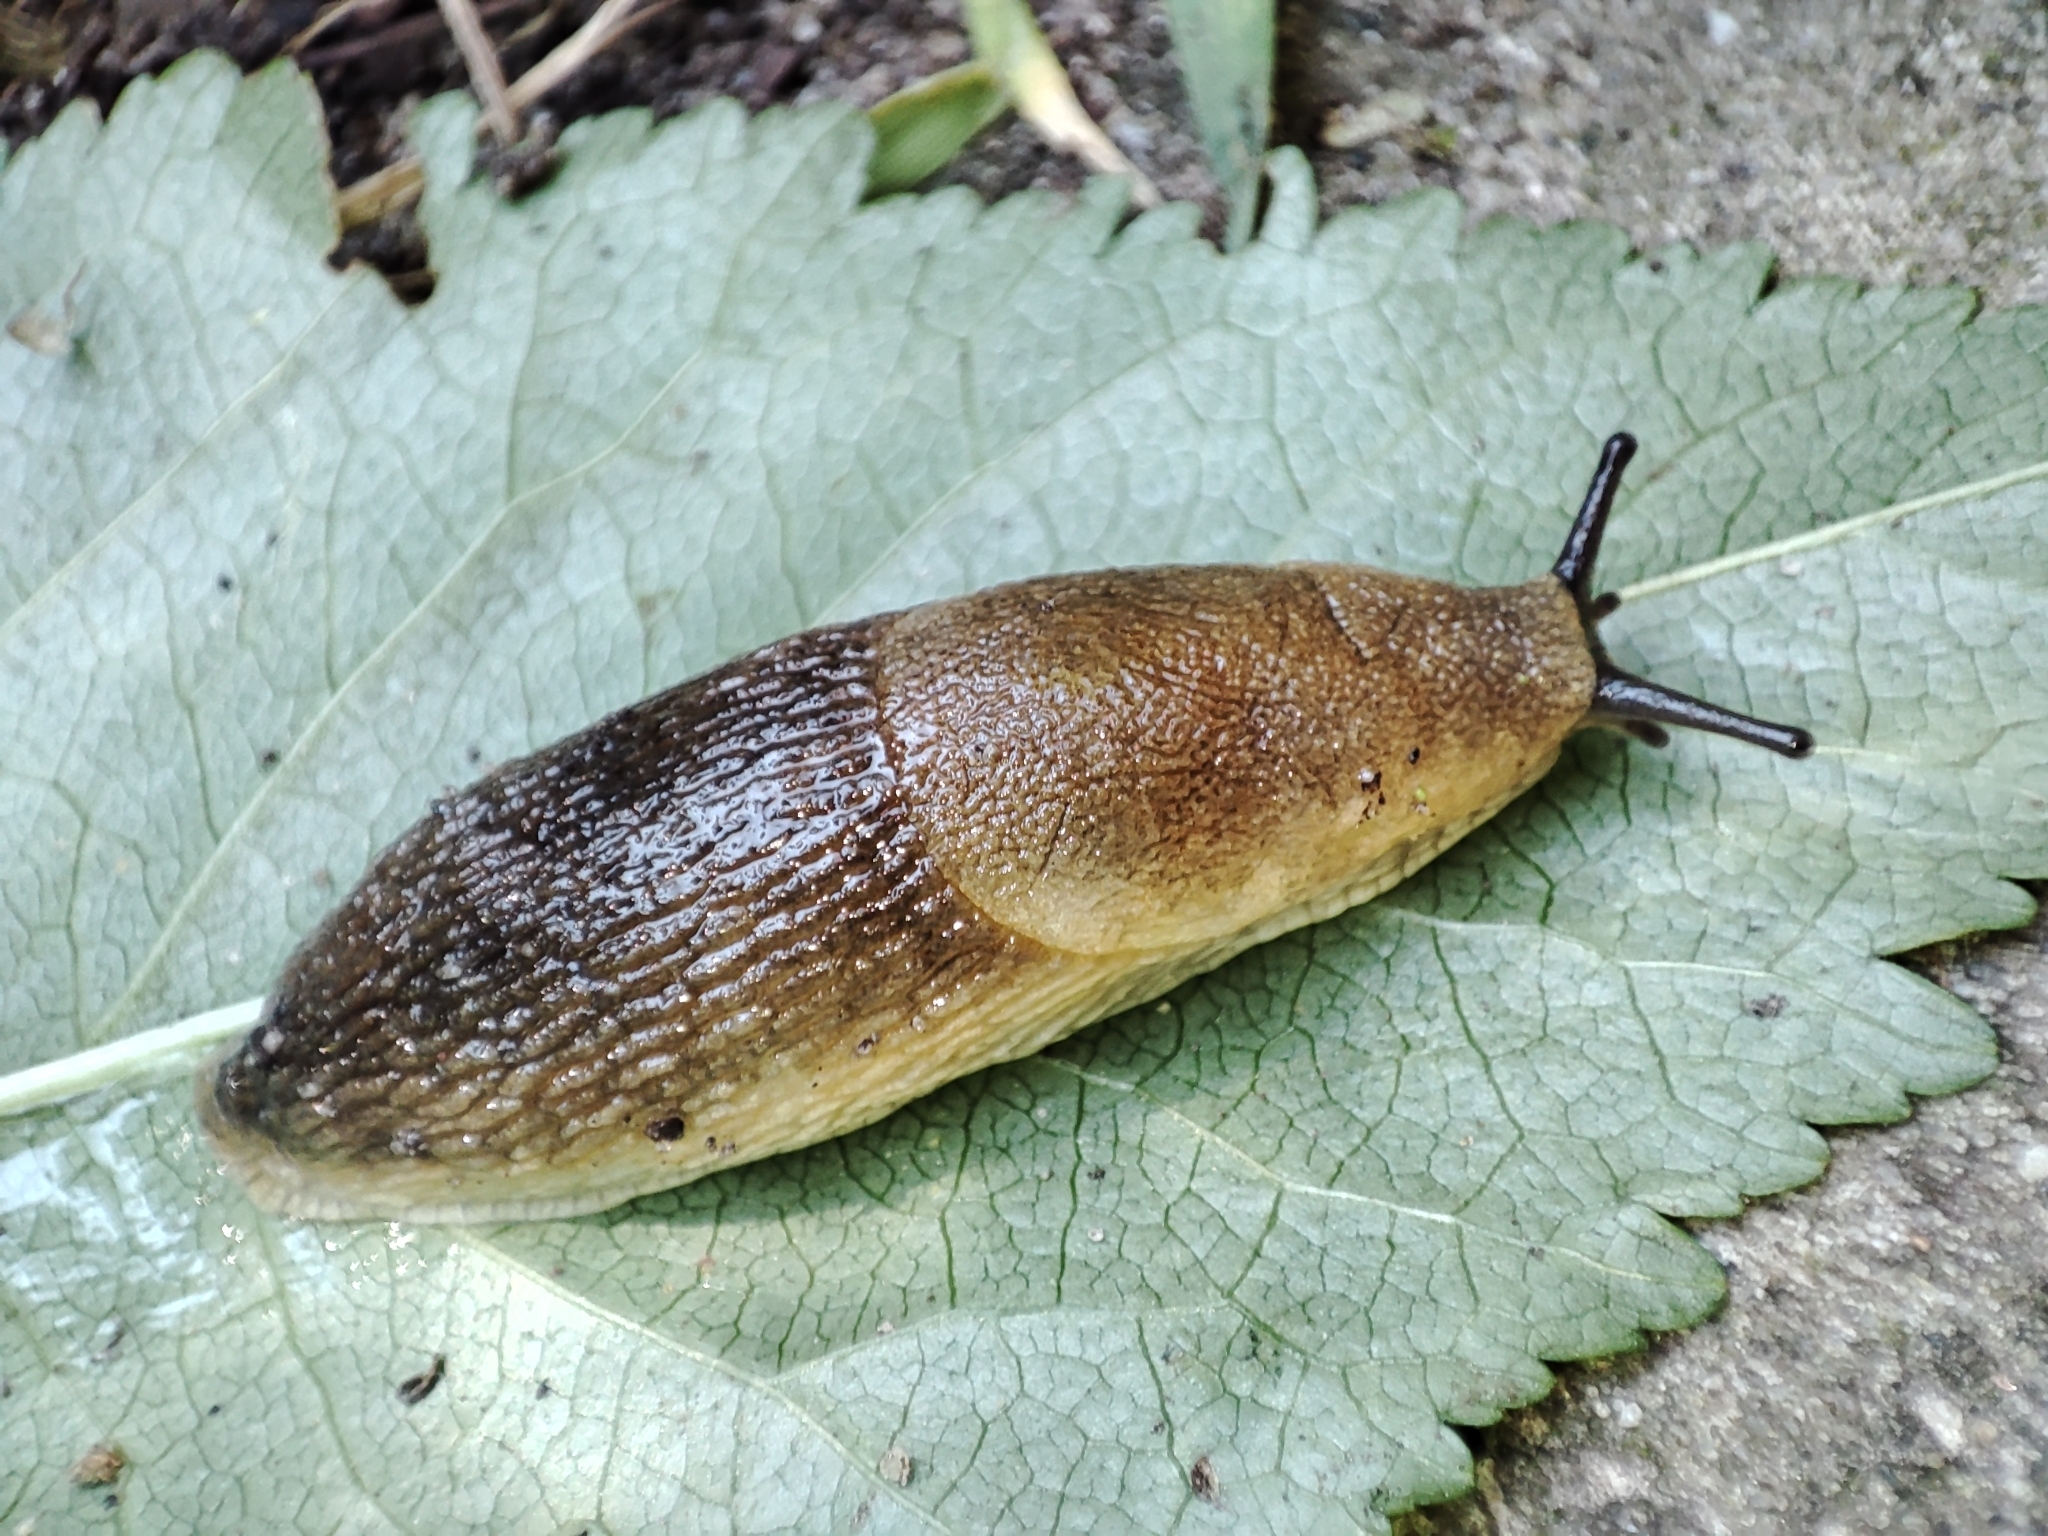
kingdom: Animalia
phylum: Mollusca
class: Gastropoda
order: Stylommatophora
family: Arionidae
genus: Arion
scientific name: Arion fuscus
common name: Northern dusky slug
